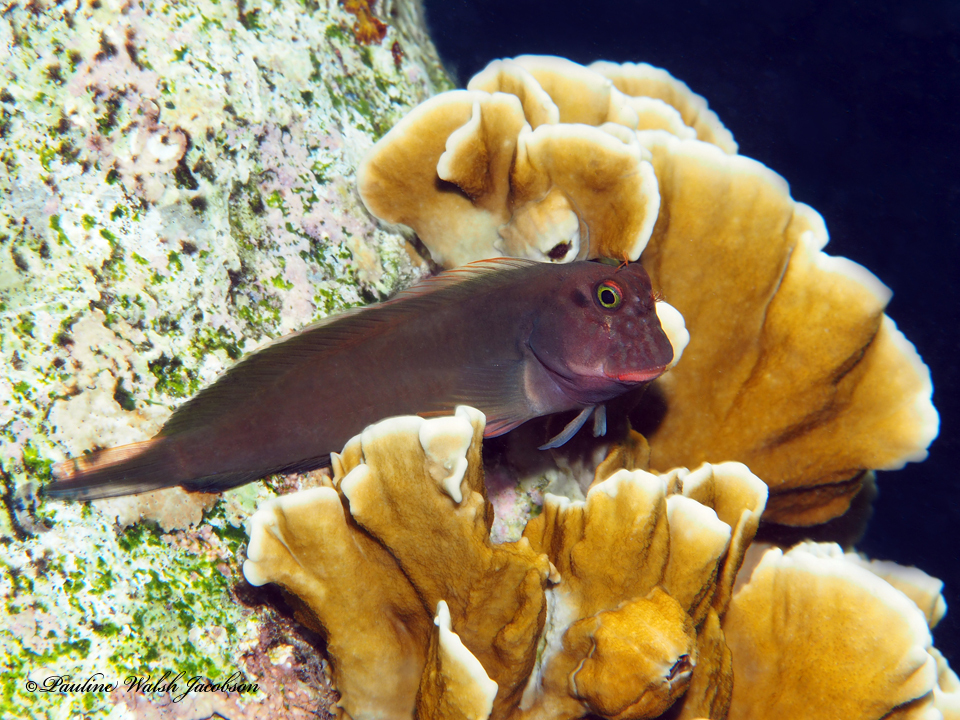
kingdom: Animalia
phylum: Chordata
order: Perciformes
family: Blenniidae
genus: Ophioblennius
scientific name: Ophioblennius macclurei
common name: Redlip blenny
